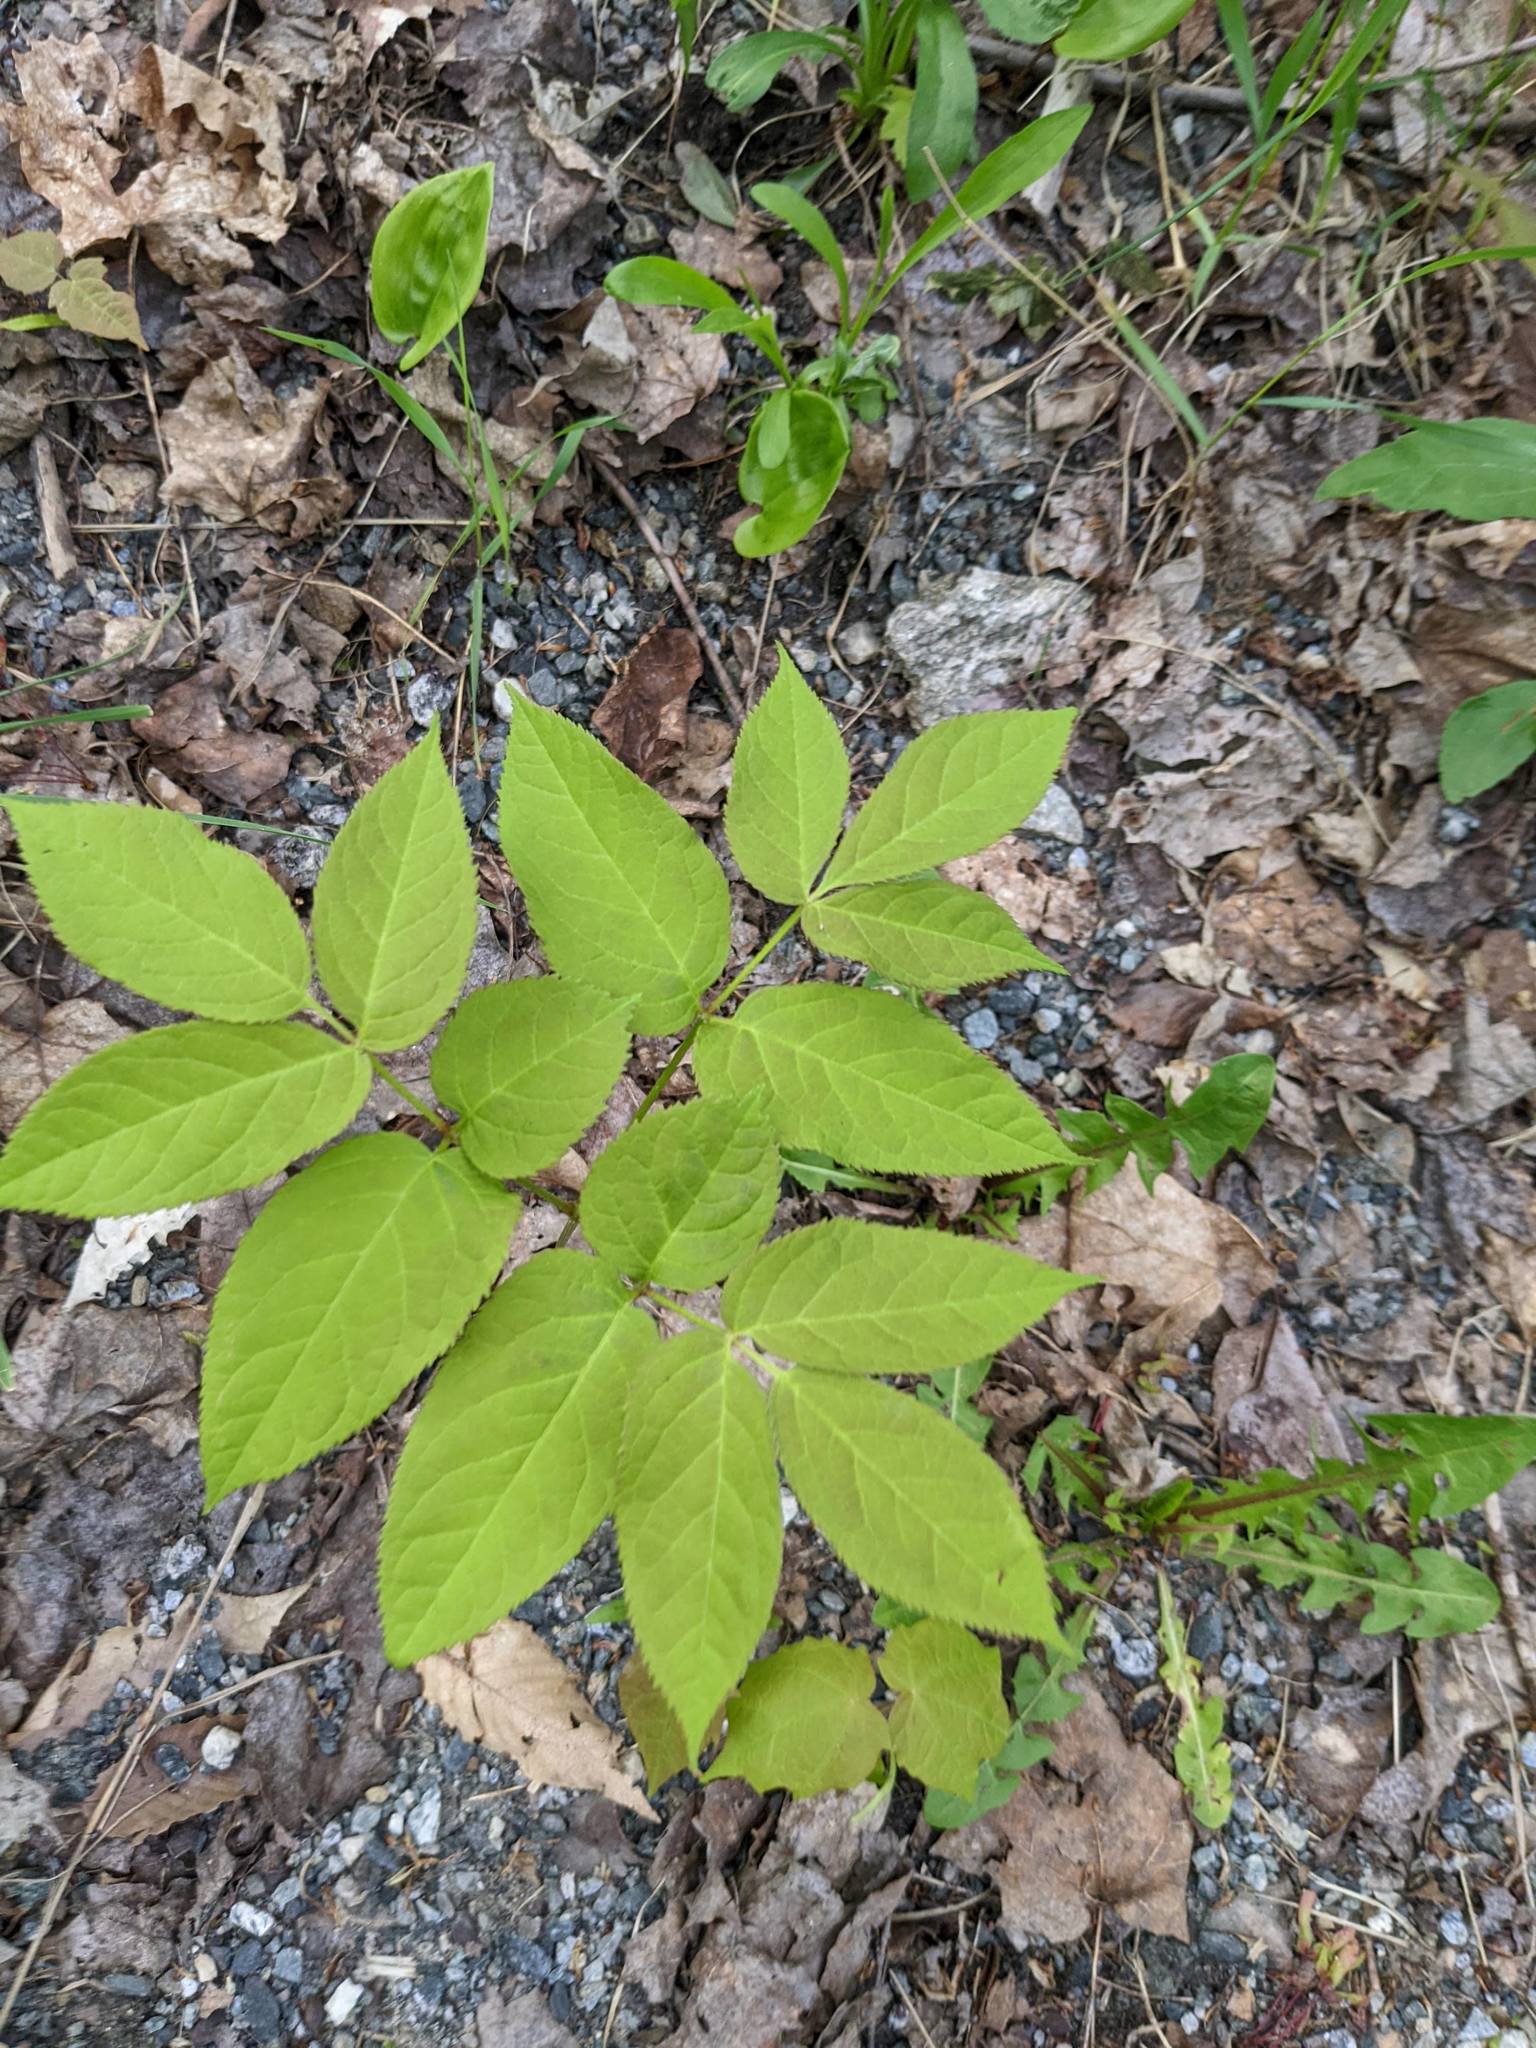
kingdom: Plantae
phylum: Tracheophyta
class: Magnoliopsida
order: Apiales
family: Araliaceae
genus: Aralia
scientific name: Aralia nudicaulis
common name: Wild sarsaparilla
